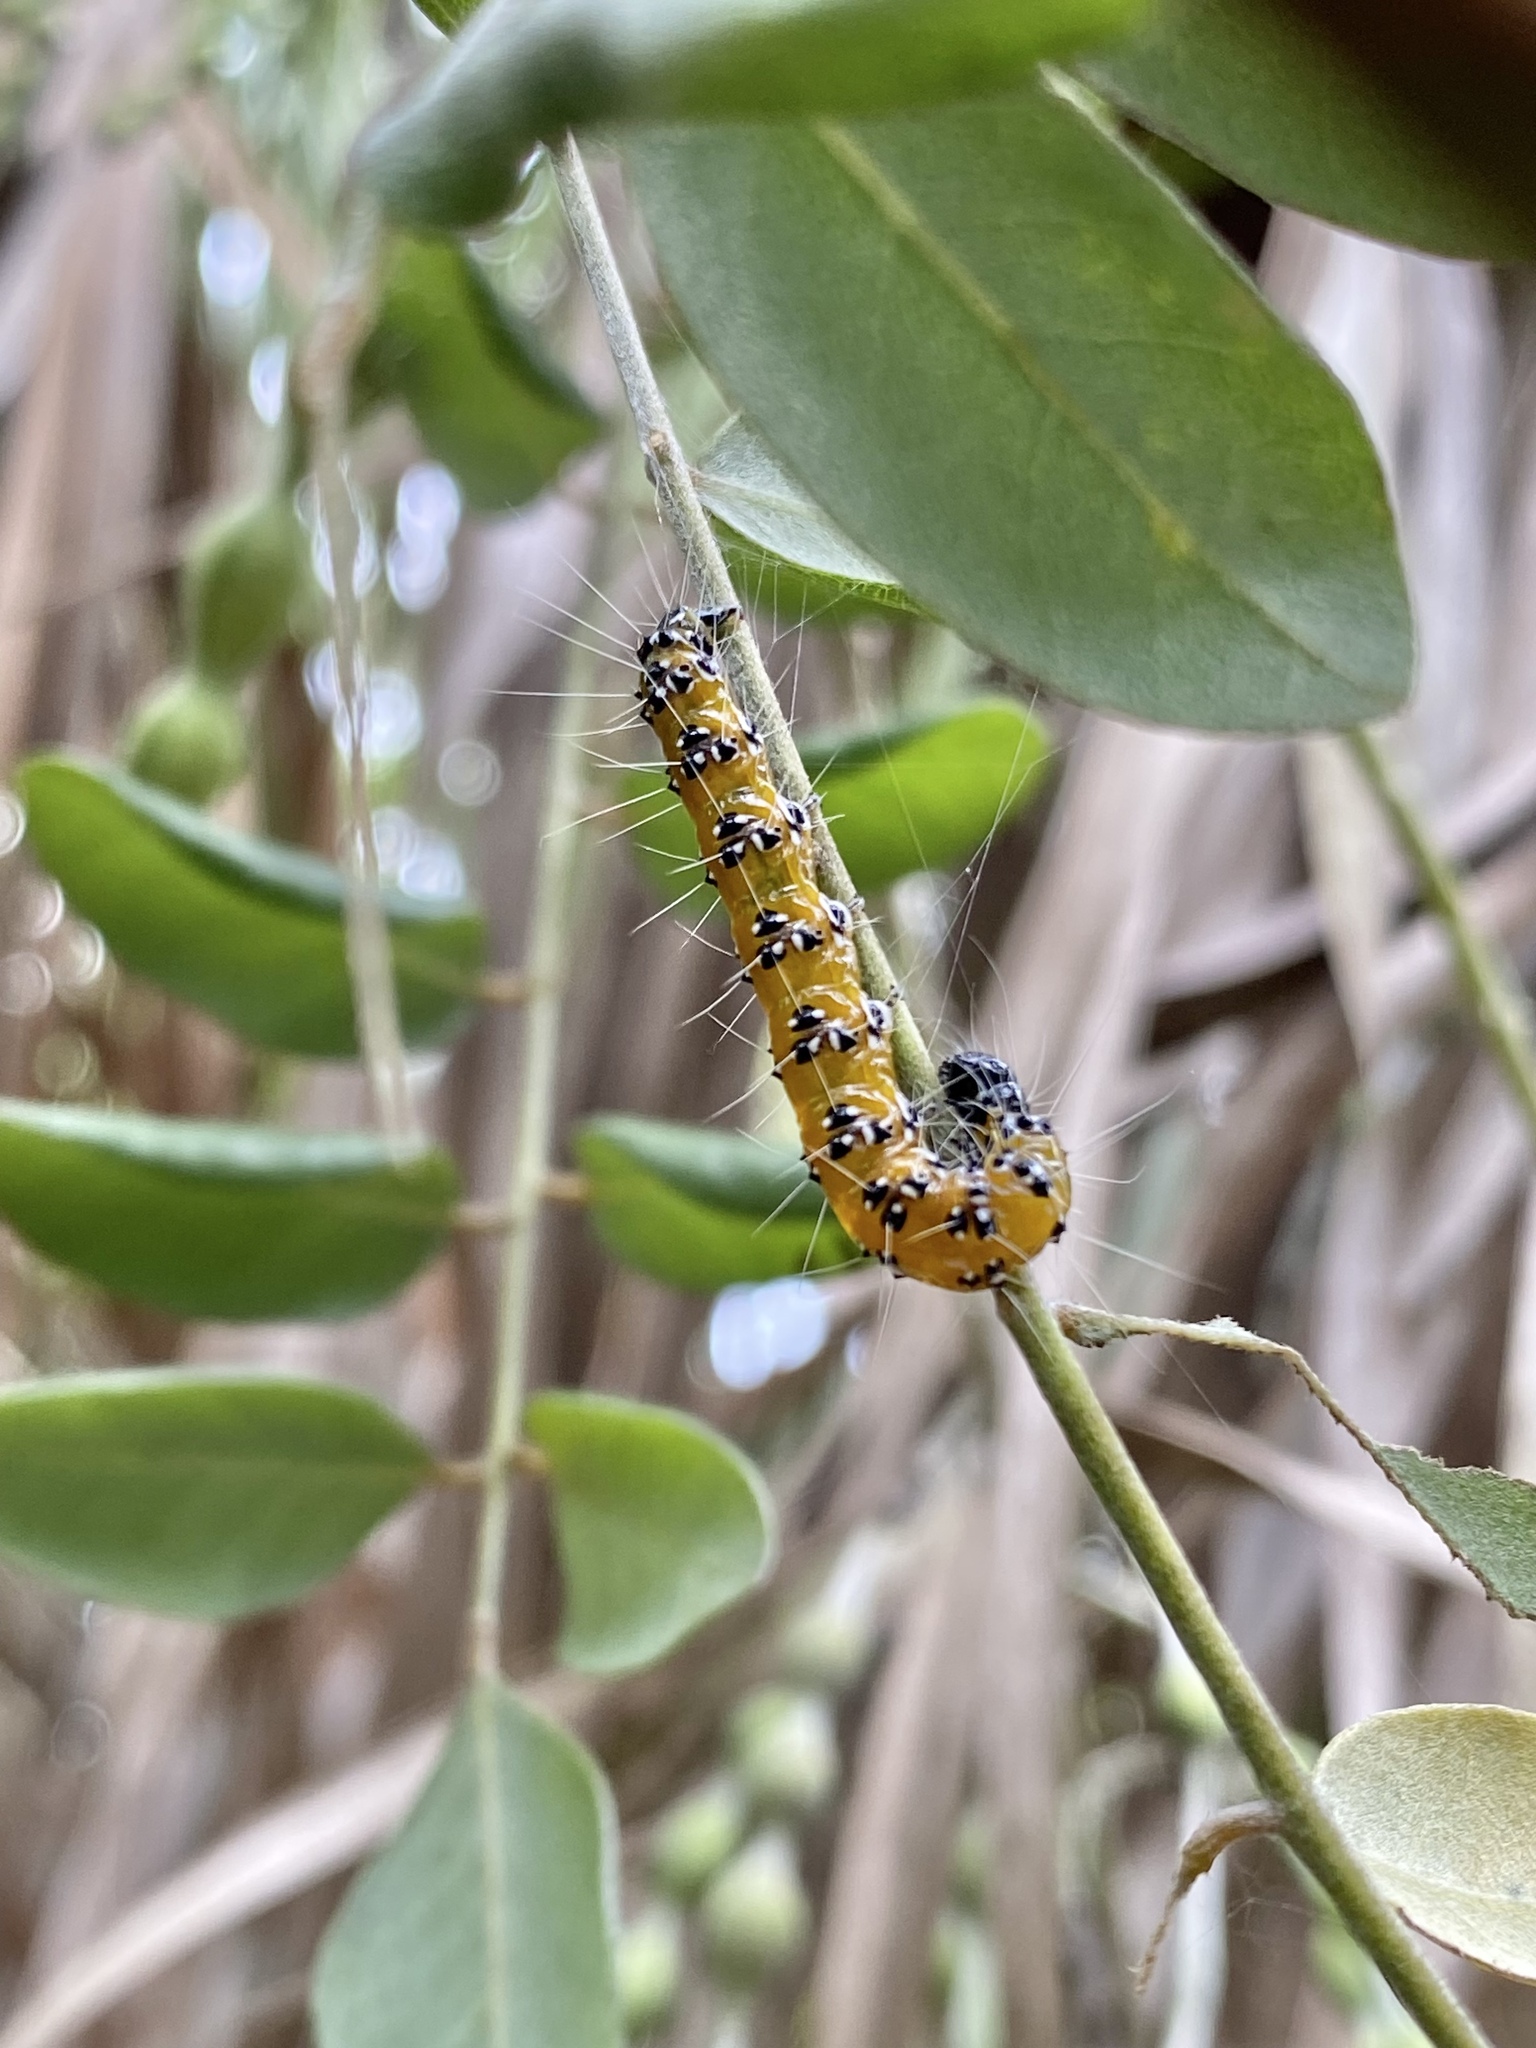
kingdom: Animalia
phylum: Arthropoda
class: Insecta
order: Lepidoptera
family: Crambidae
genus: Uresiphita
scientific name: Uresiphita reversalis
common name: Genista broom moth
